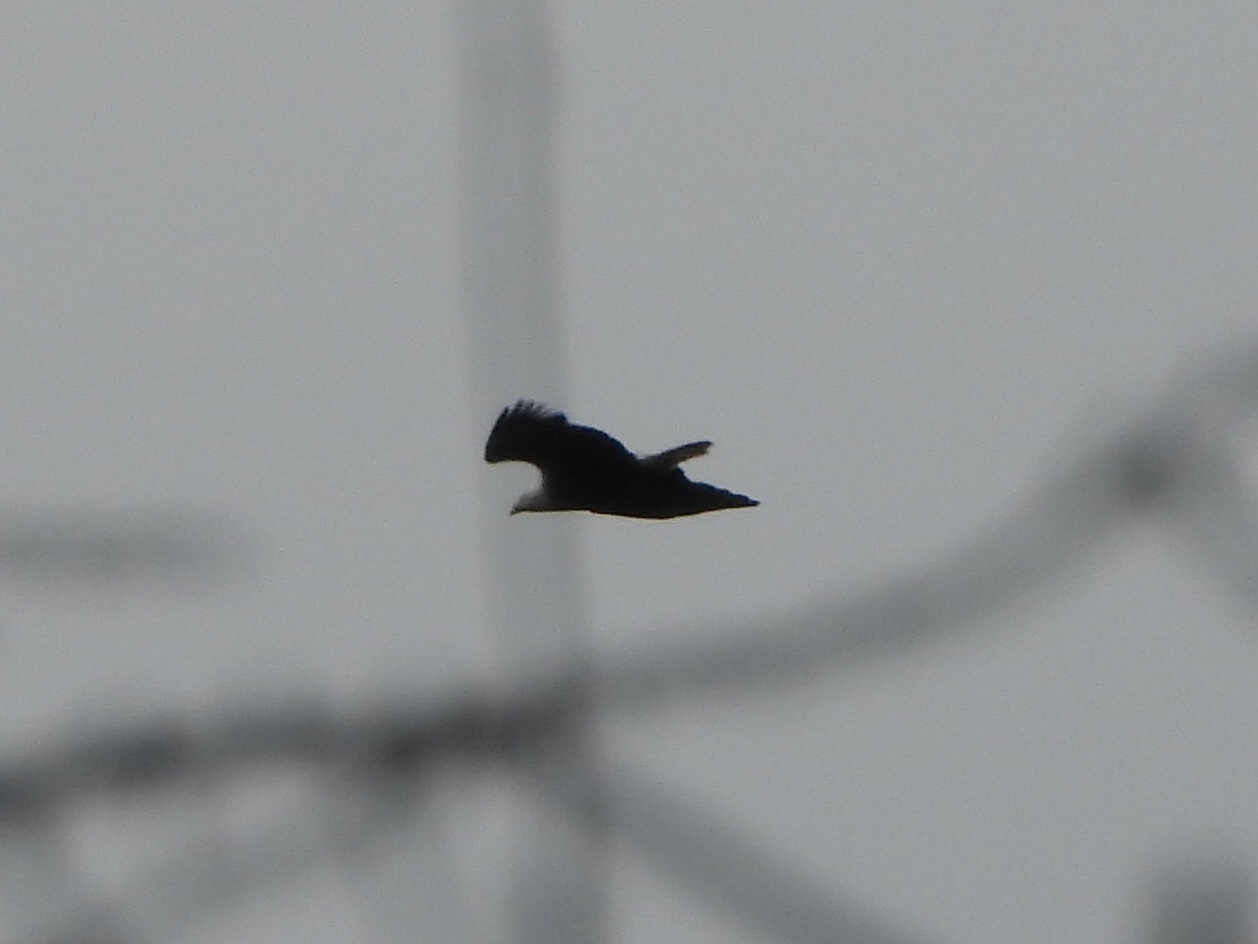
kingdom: Animalia
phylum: Chordata
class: Aves
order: Accipitriformes
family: Accipitridae
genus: Haliaeetus
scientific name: Haliaeetus leucocephalus
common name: Bald eagle
